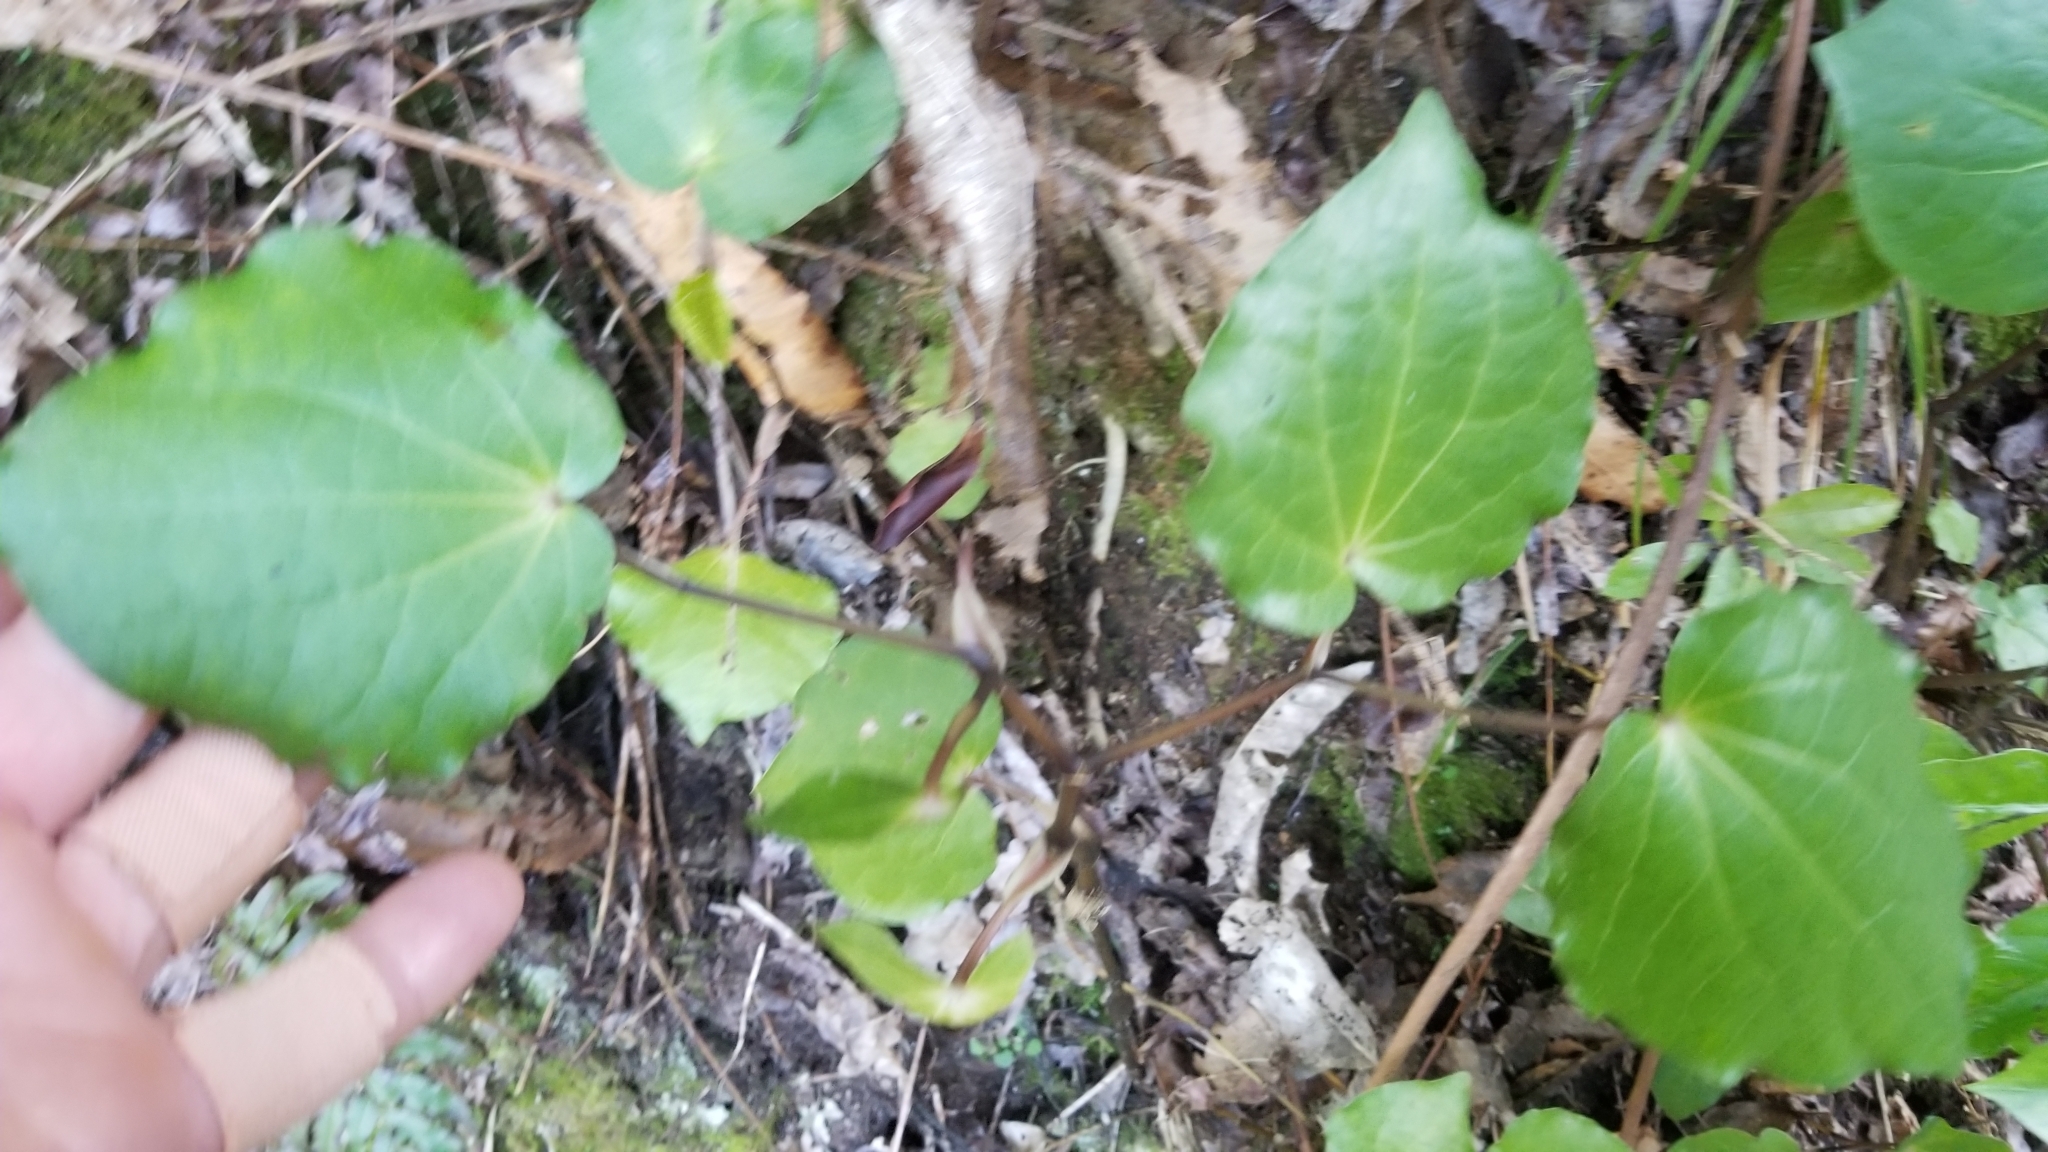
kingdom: Plantae
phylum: Tracheophyta
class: Magnoliopsida
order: Piperales
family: Piperaceae
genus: Macropiper
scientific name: Macropiper excelsum
